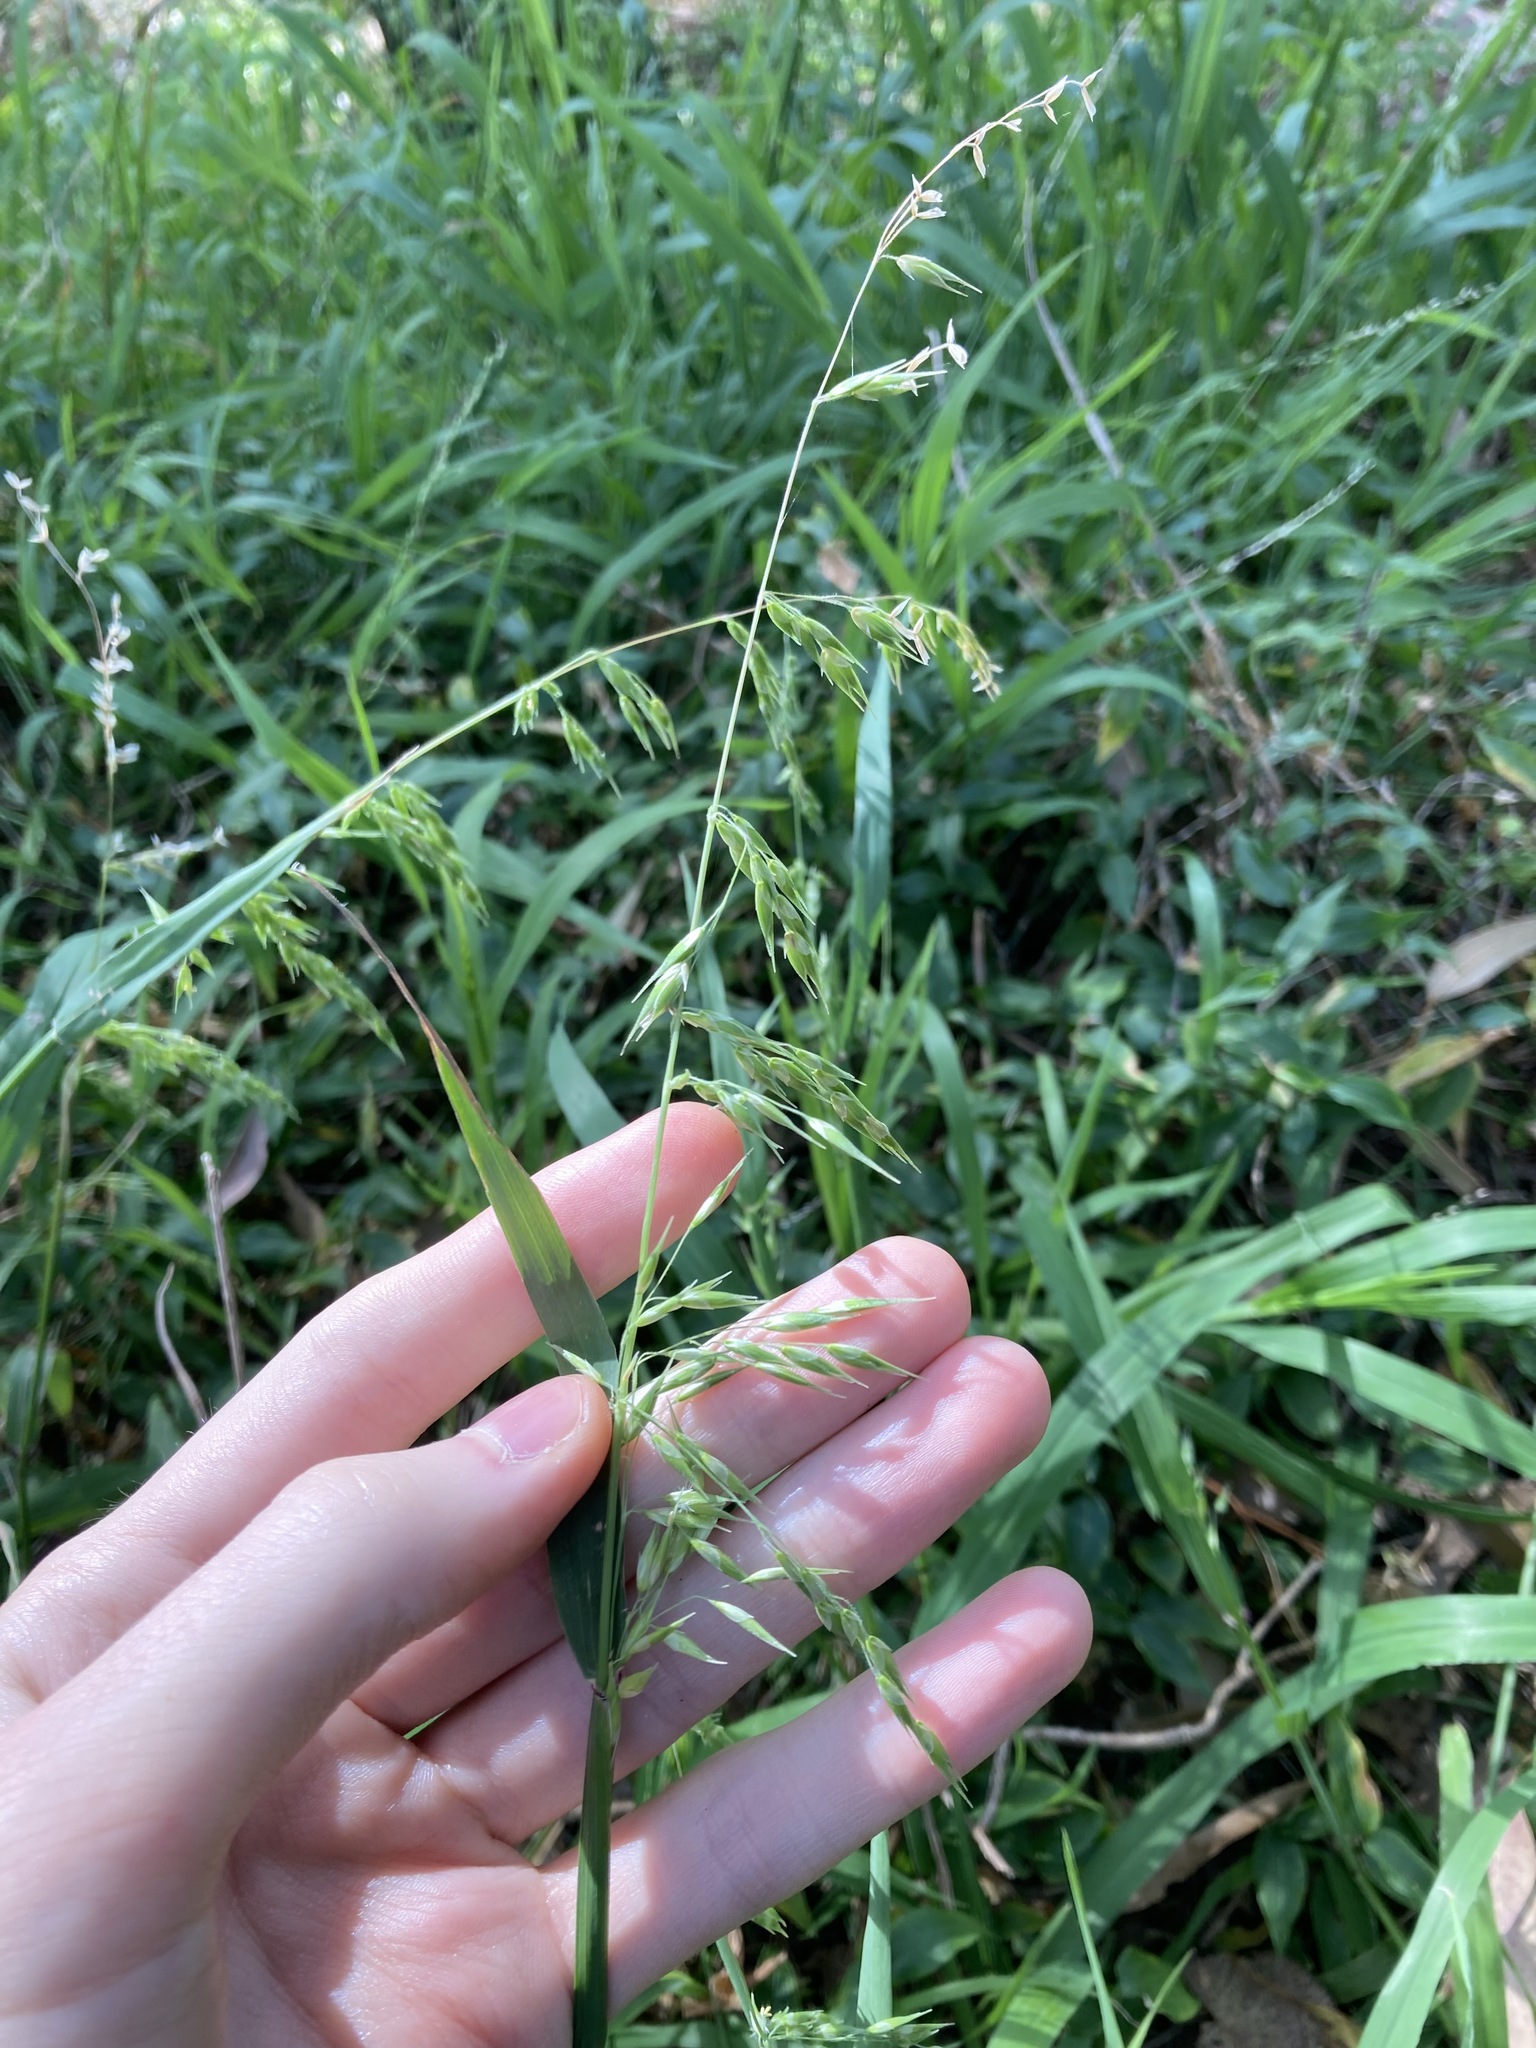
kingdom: Plantae
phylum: Tracheophyta
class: Liliopsida
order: Poales
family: Poaceae
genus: Ehrharta
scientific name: Ehrharta longiflora
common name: Longflowered veldtgrass
